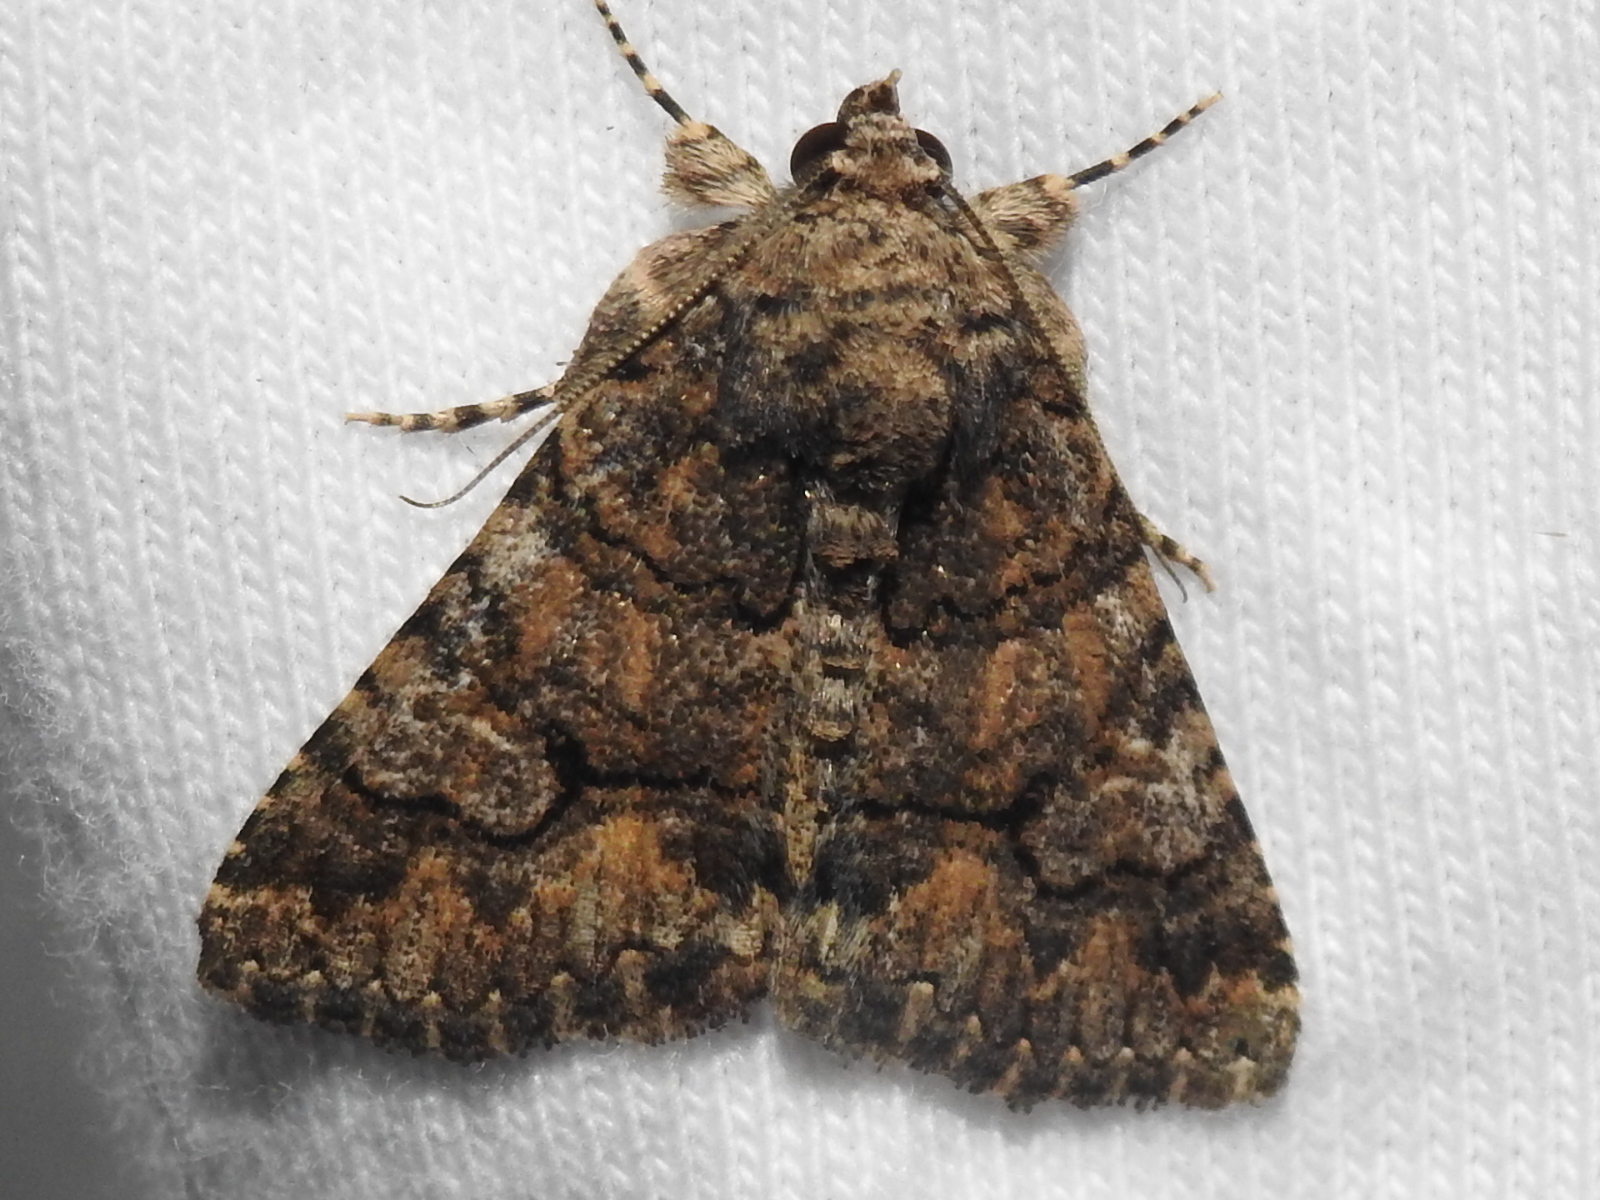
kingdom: Animalia
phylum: Arthropoda
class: Insecta
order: Lepidoptera
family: Erebidae
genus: Elousa
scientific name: Elousa mima
